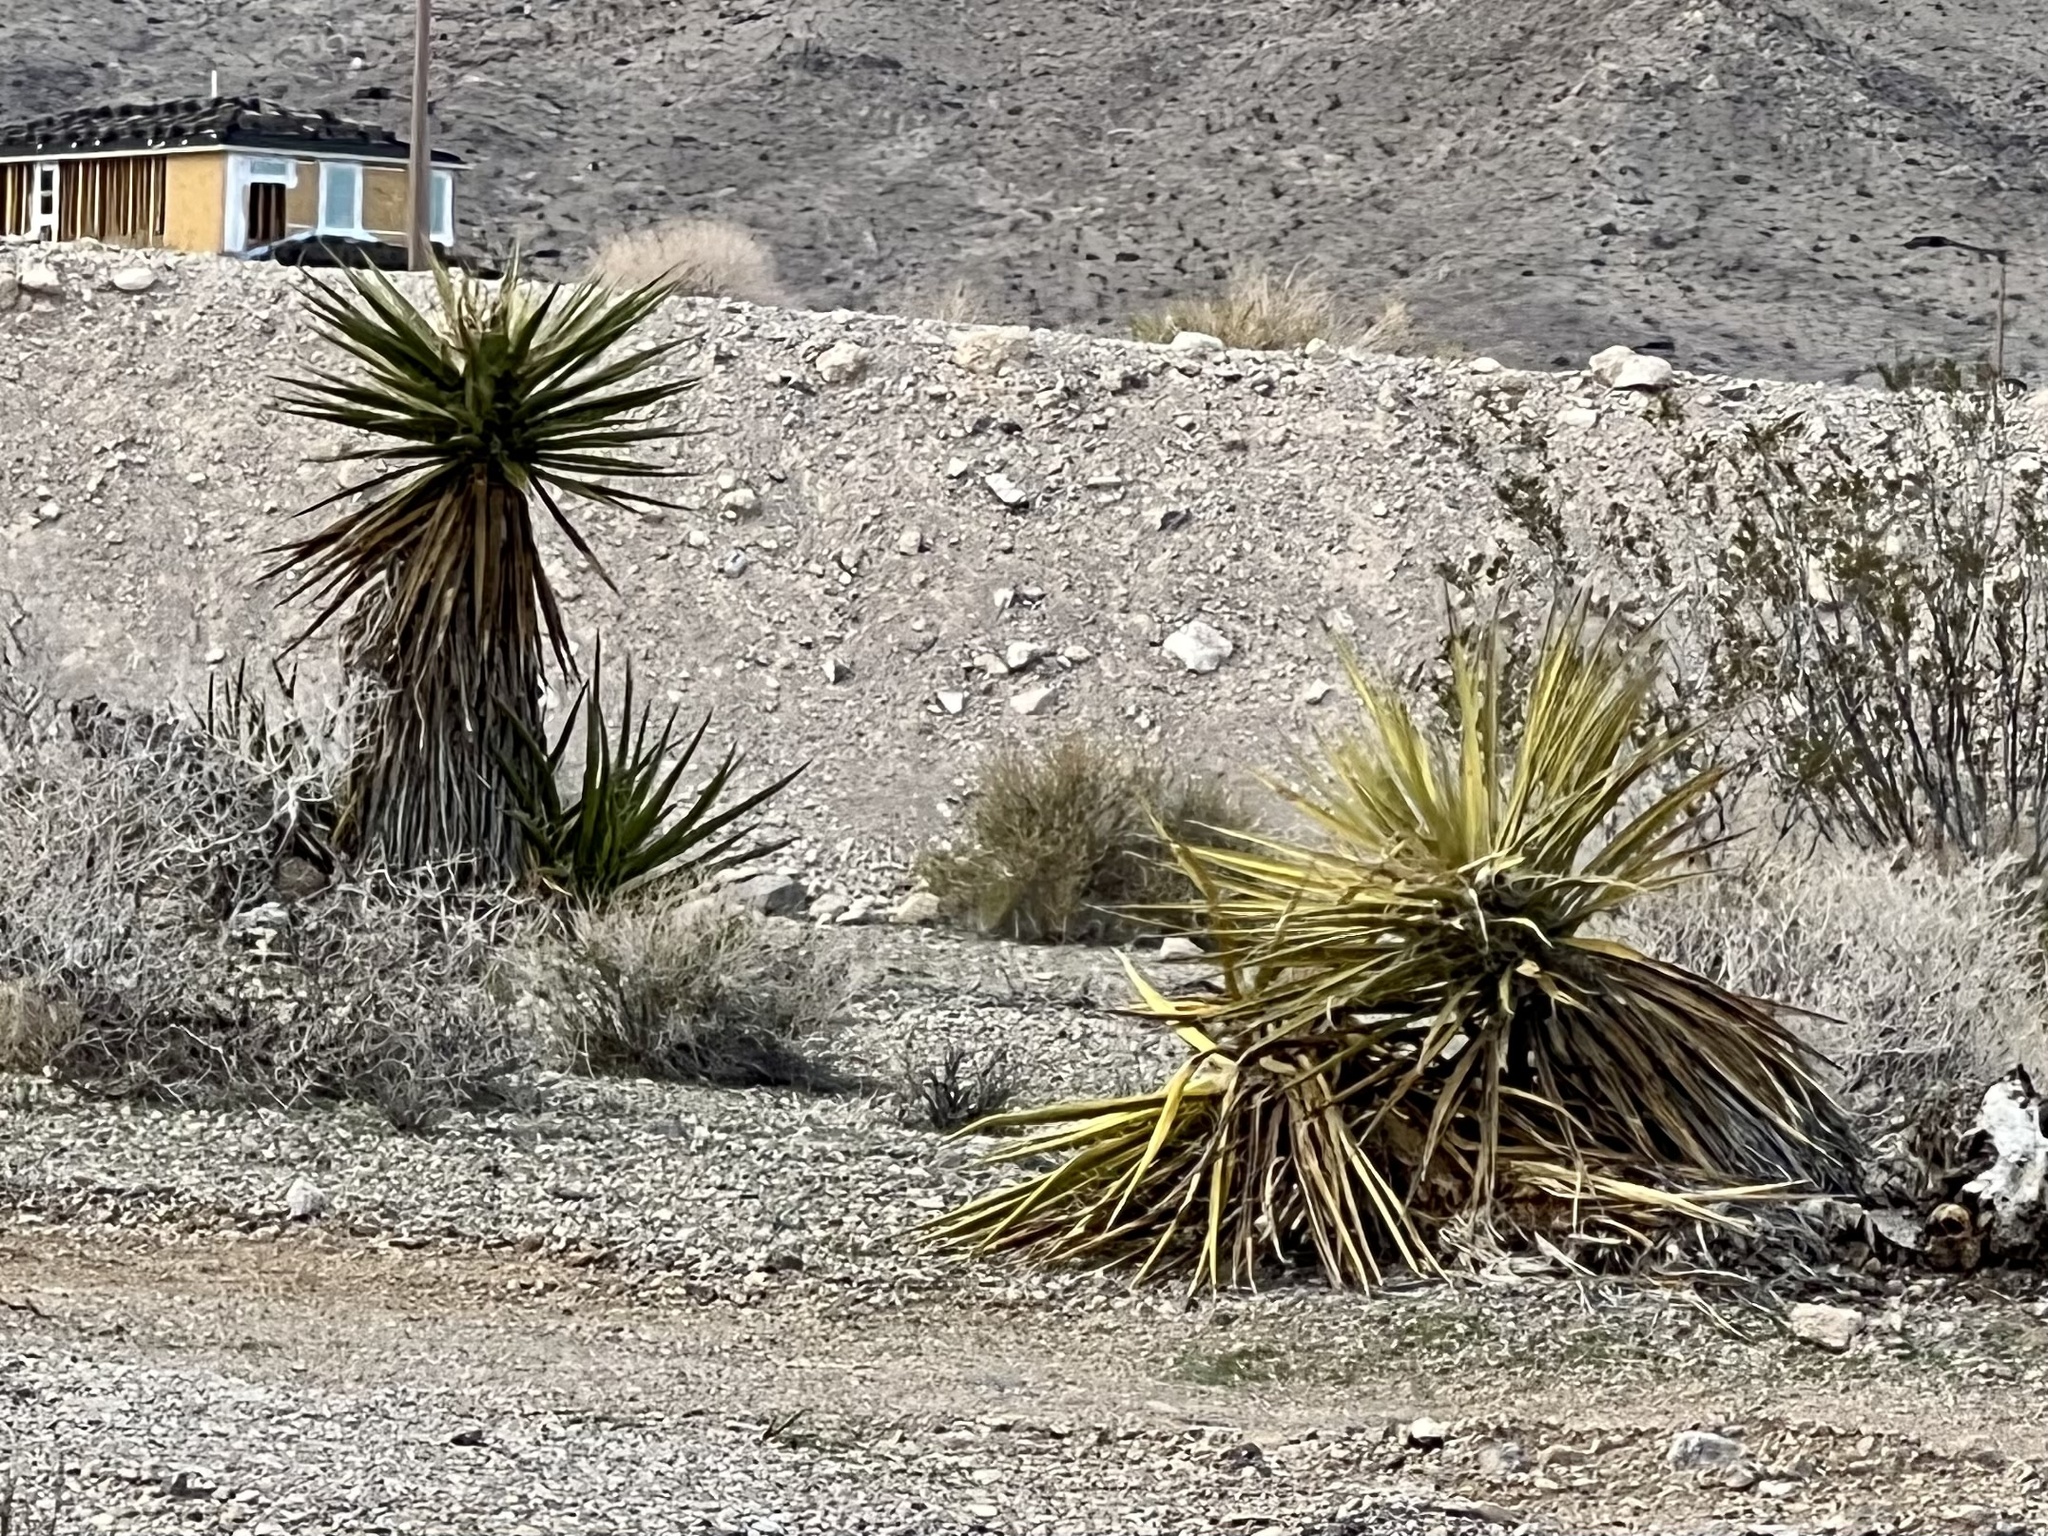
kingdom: Plantae
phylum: Tracheophyta
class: Liliopsida
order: Asparagales
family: Asparagaceae
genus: Yucca
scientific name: Yucca schidigera
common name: Mojave yucca
